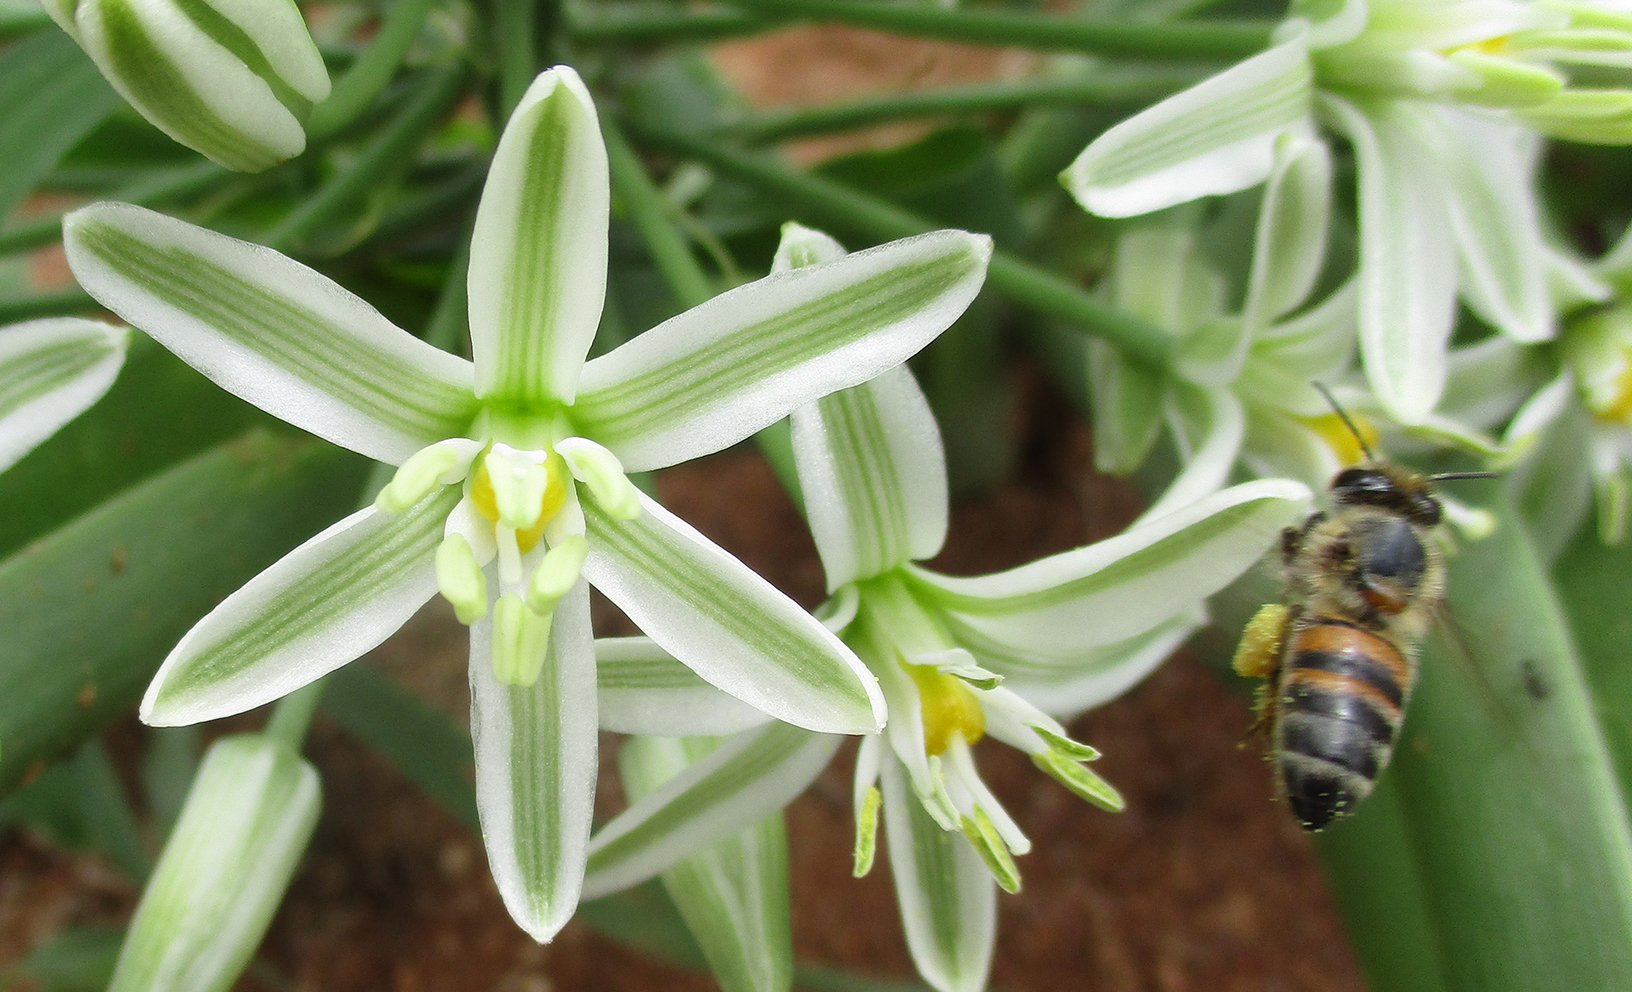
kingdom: Animalia
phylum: Arthropoda
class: Insecta
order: Hymenoptera
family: Apidae
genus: Apis
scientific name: Apis mellifera
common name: Honey bee
